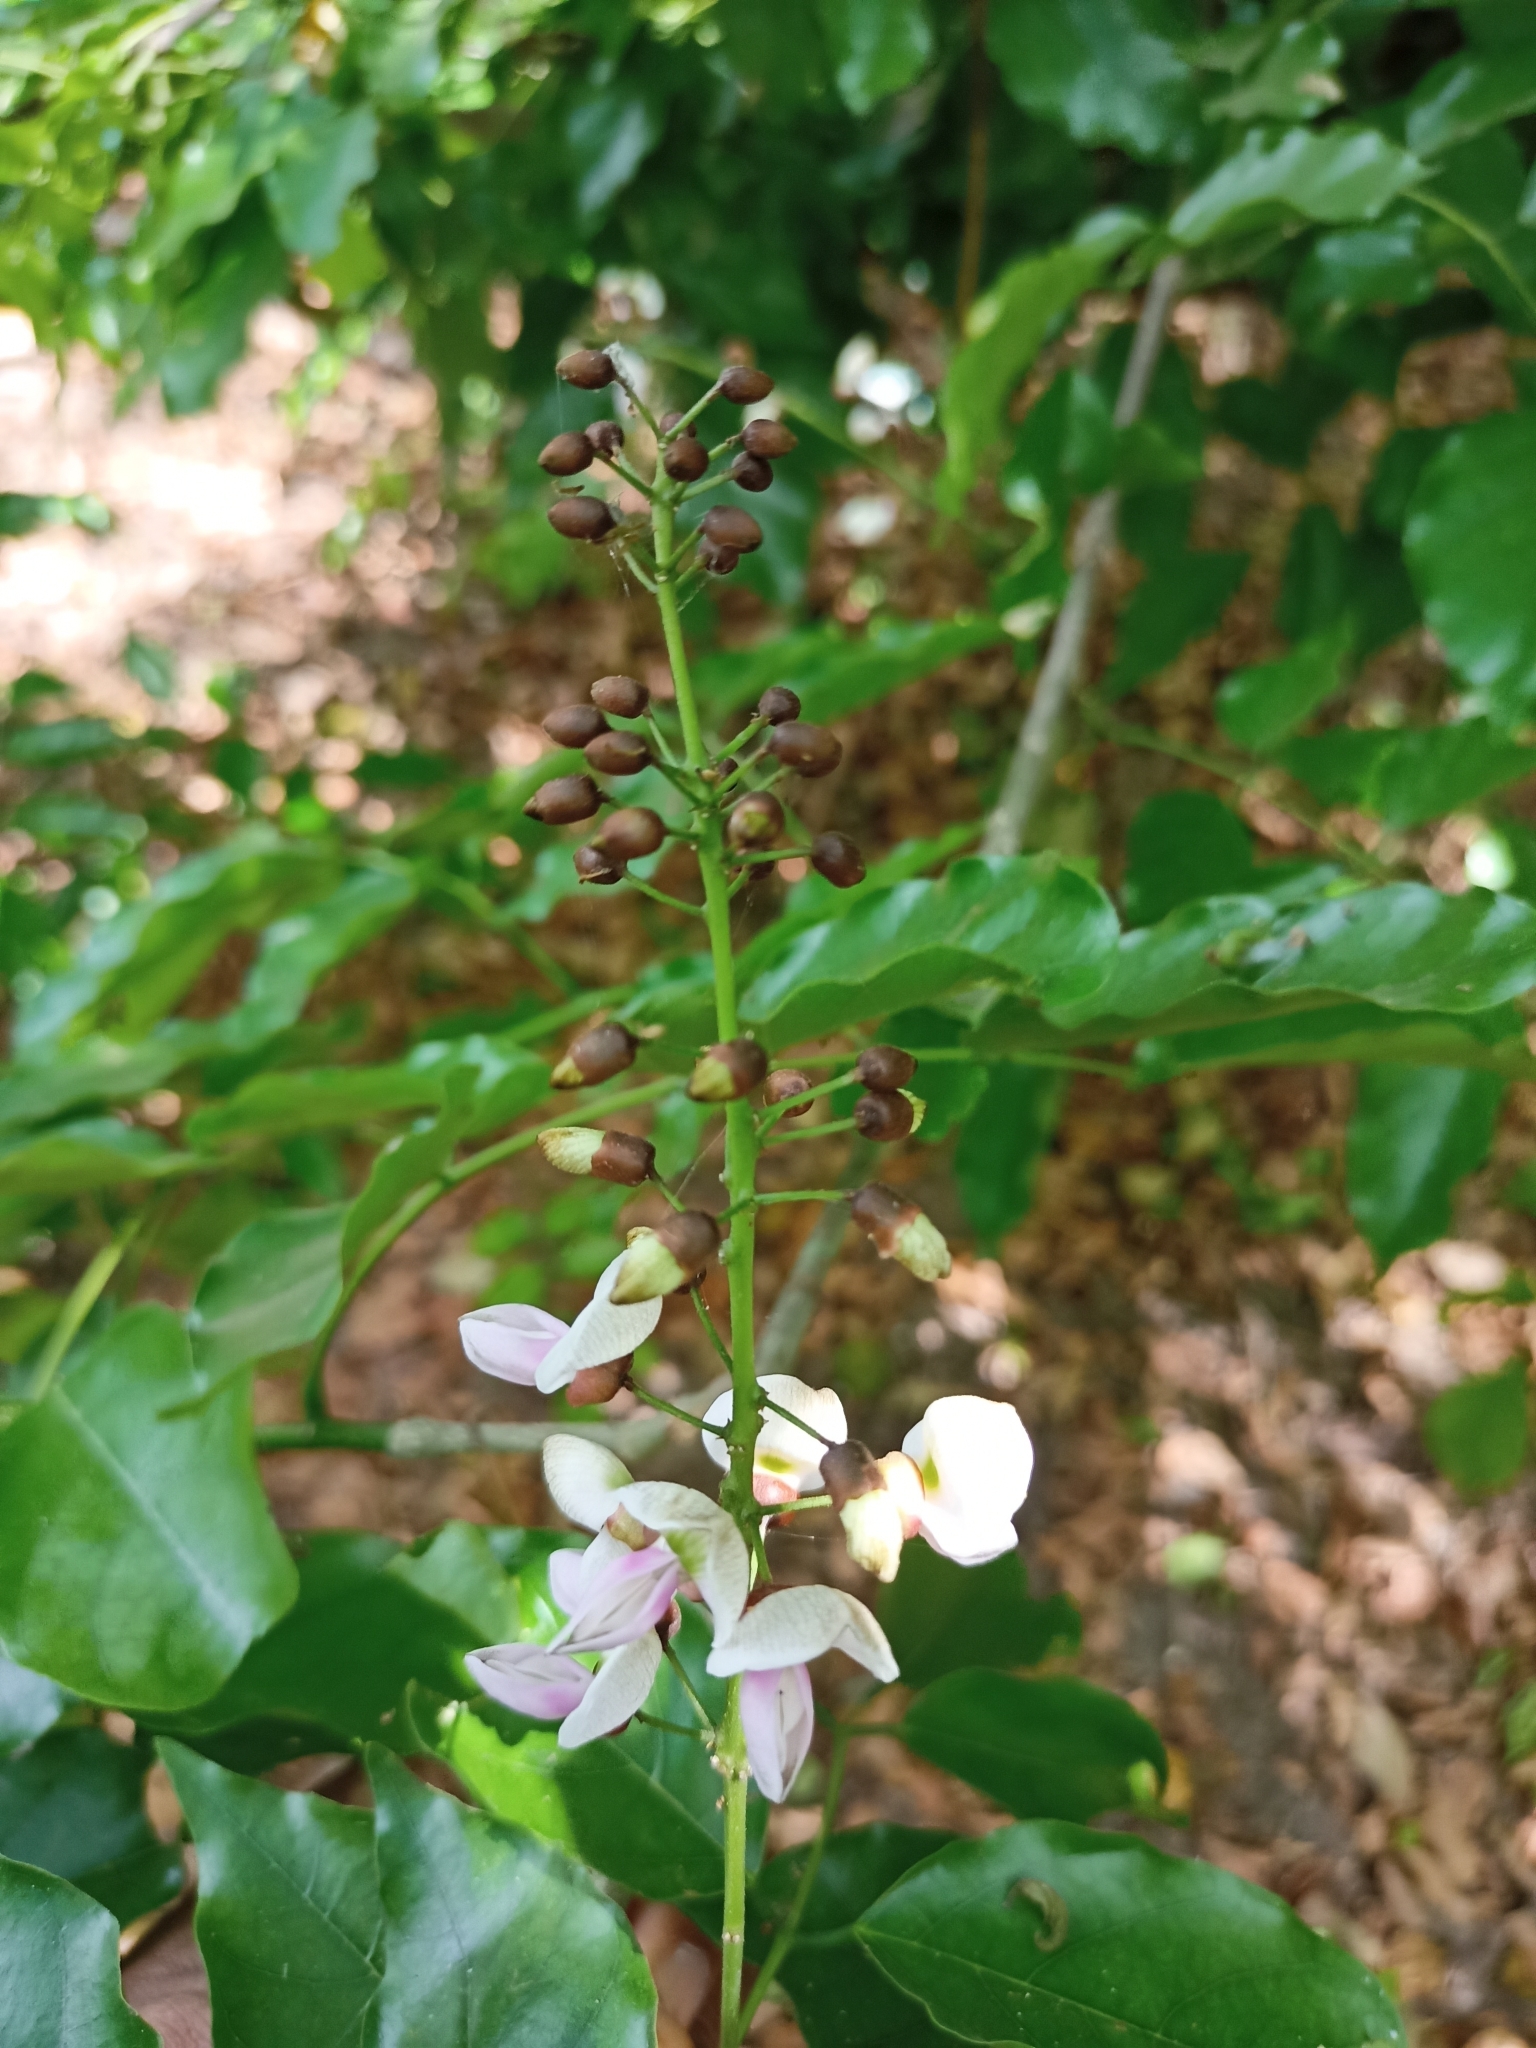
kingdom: Plantae
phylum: Tracheophyta
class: Magnoliopsida
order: Fabales
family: Fabaceae
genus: Pongamia
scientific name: Pongamia pinnata
